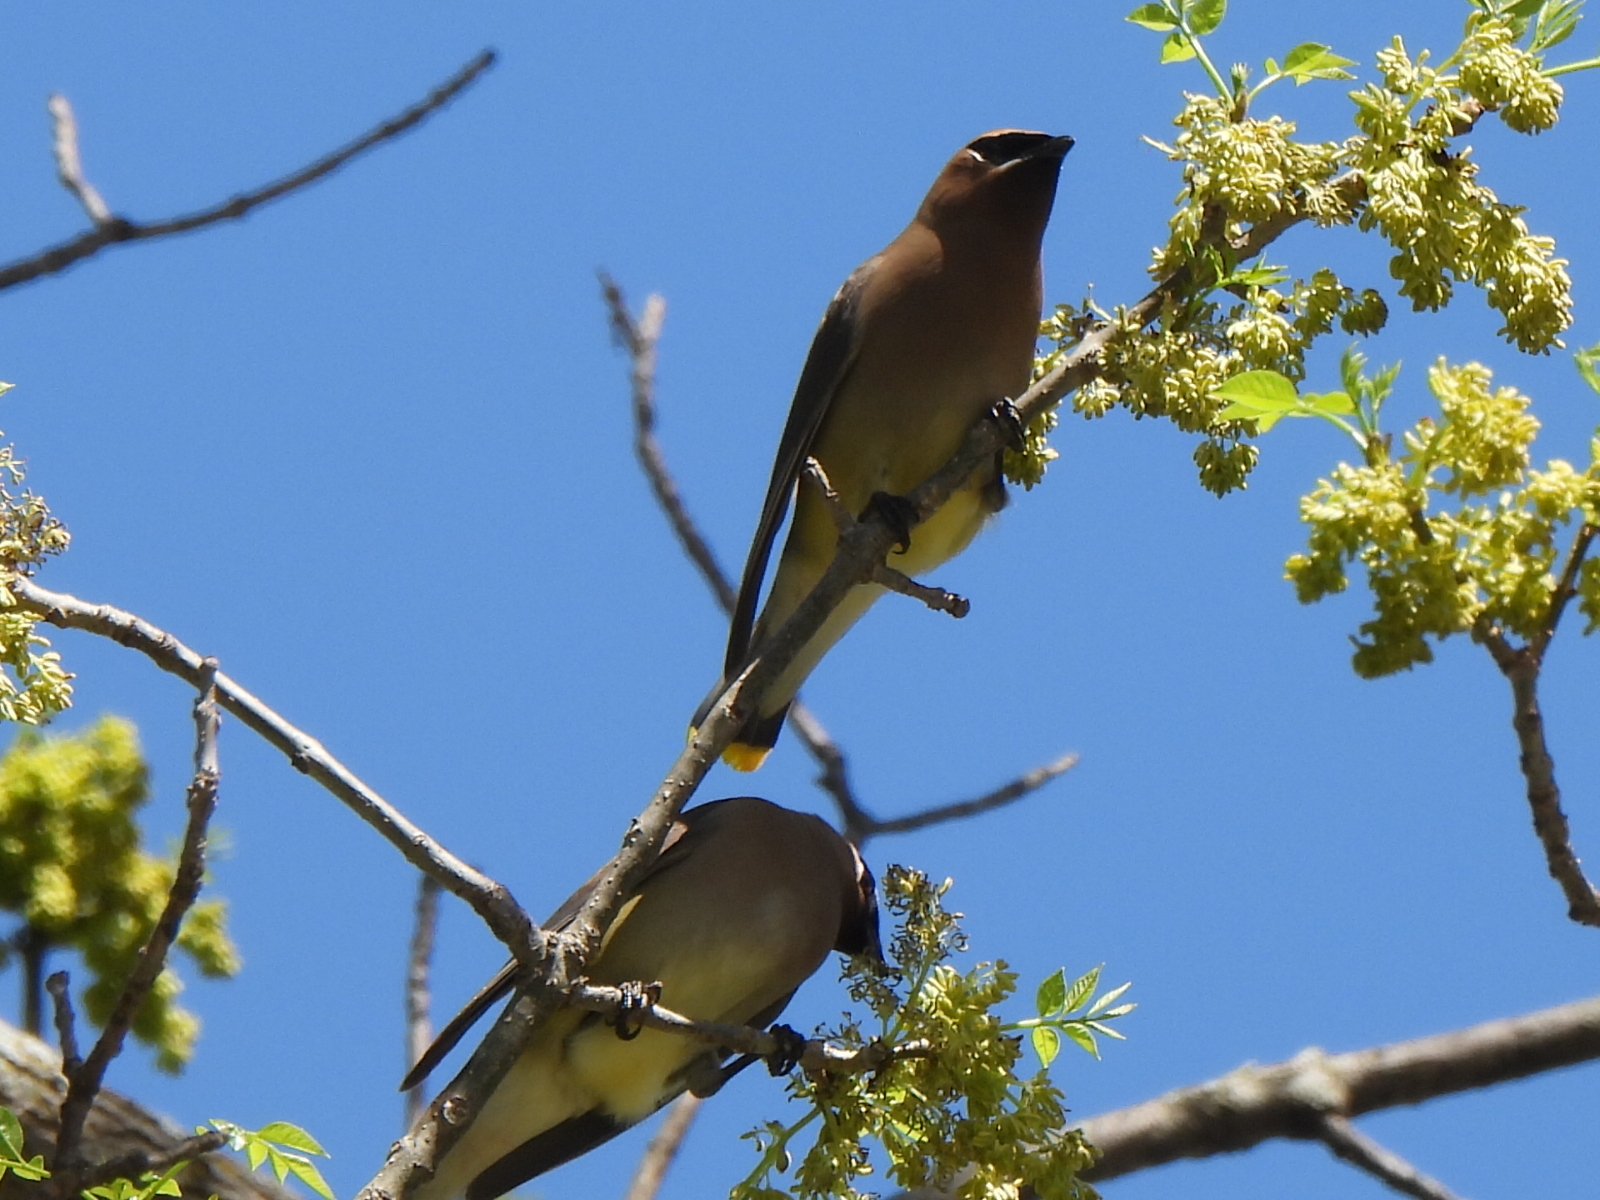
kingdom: Animalia
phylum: Chordata
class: Aves
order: Passeriformes
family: Bombycillidae
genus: Bombycilla
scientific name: Bombycilla cedrorum
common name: Cedar waxwing
